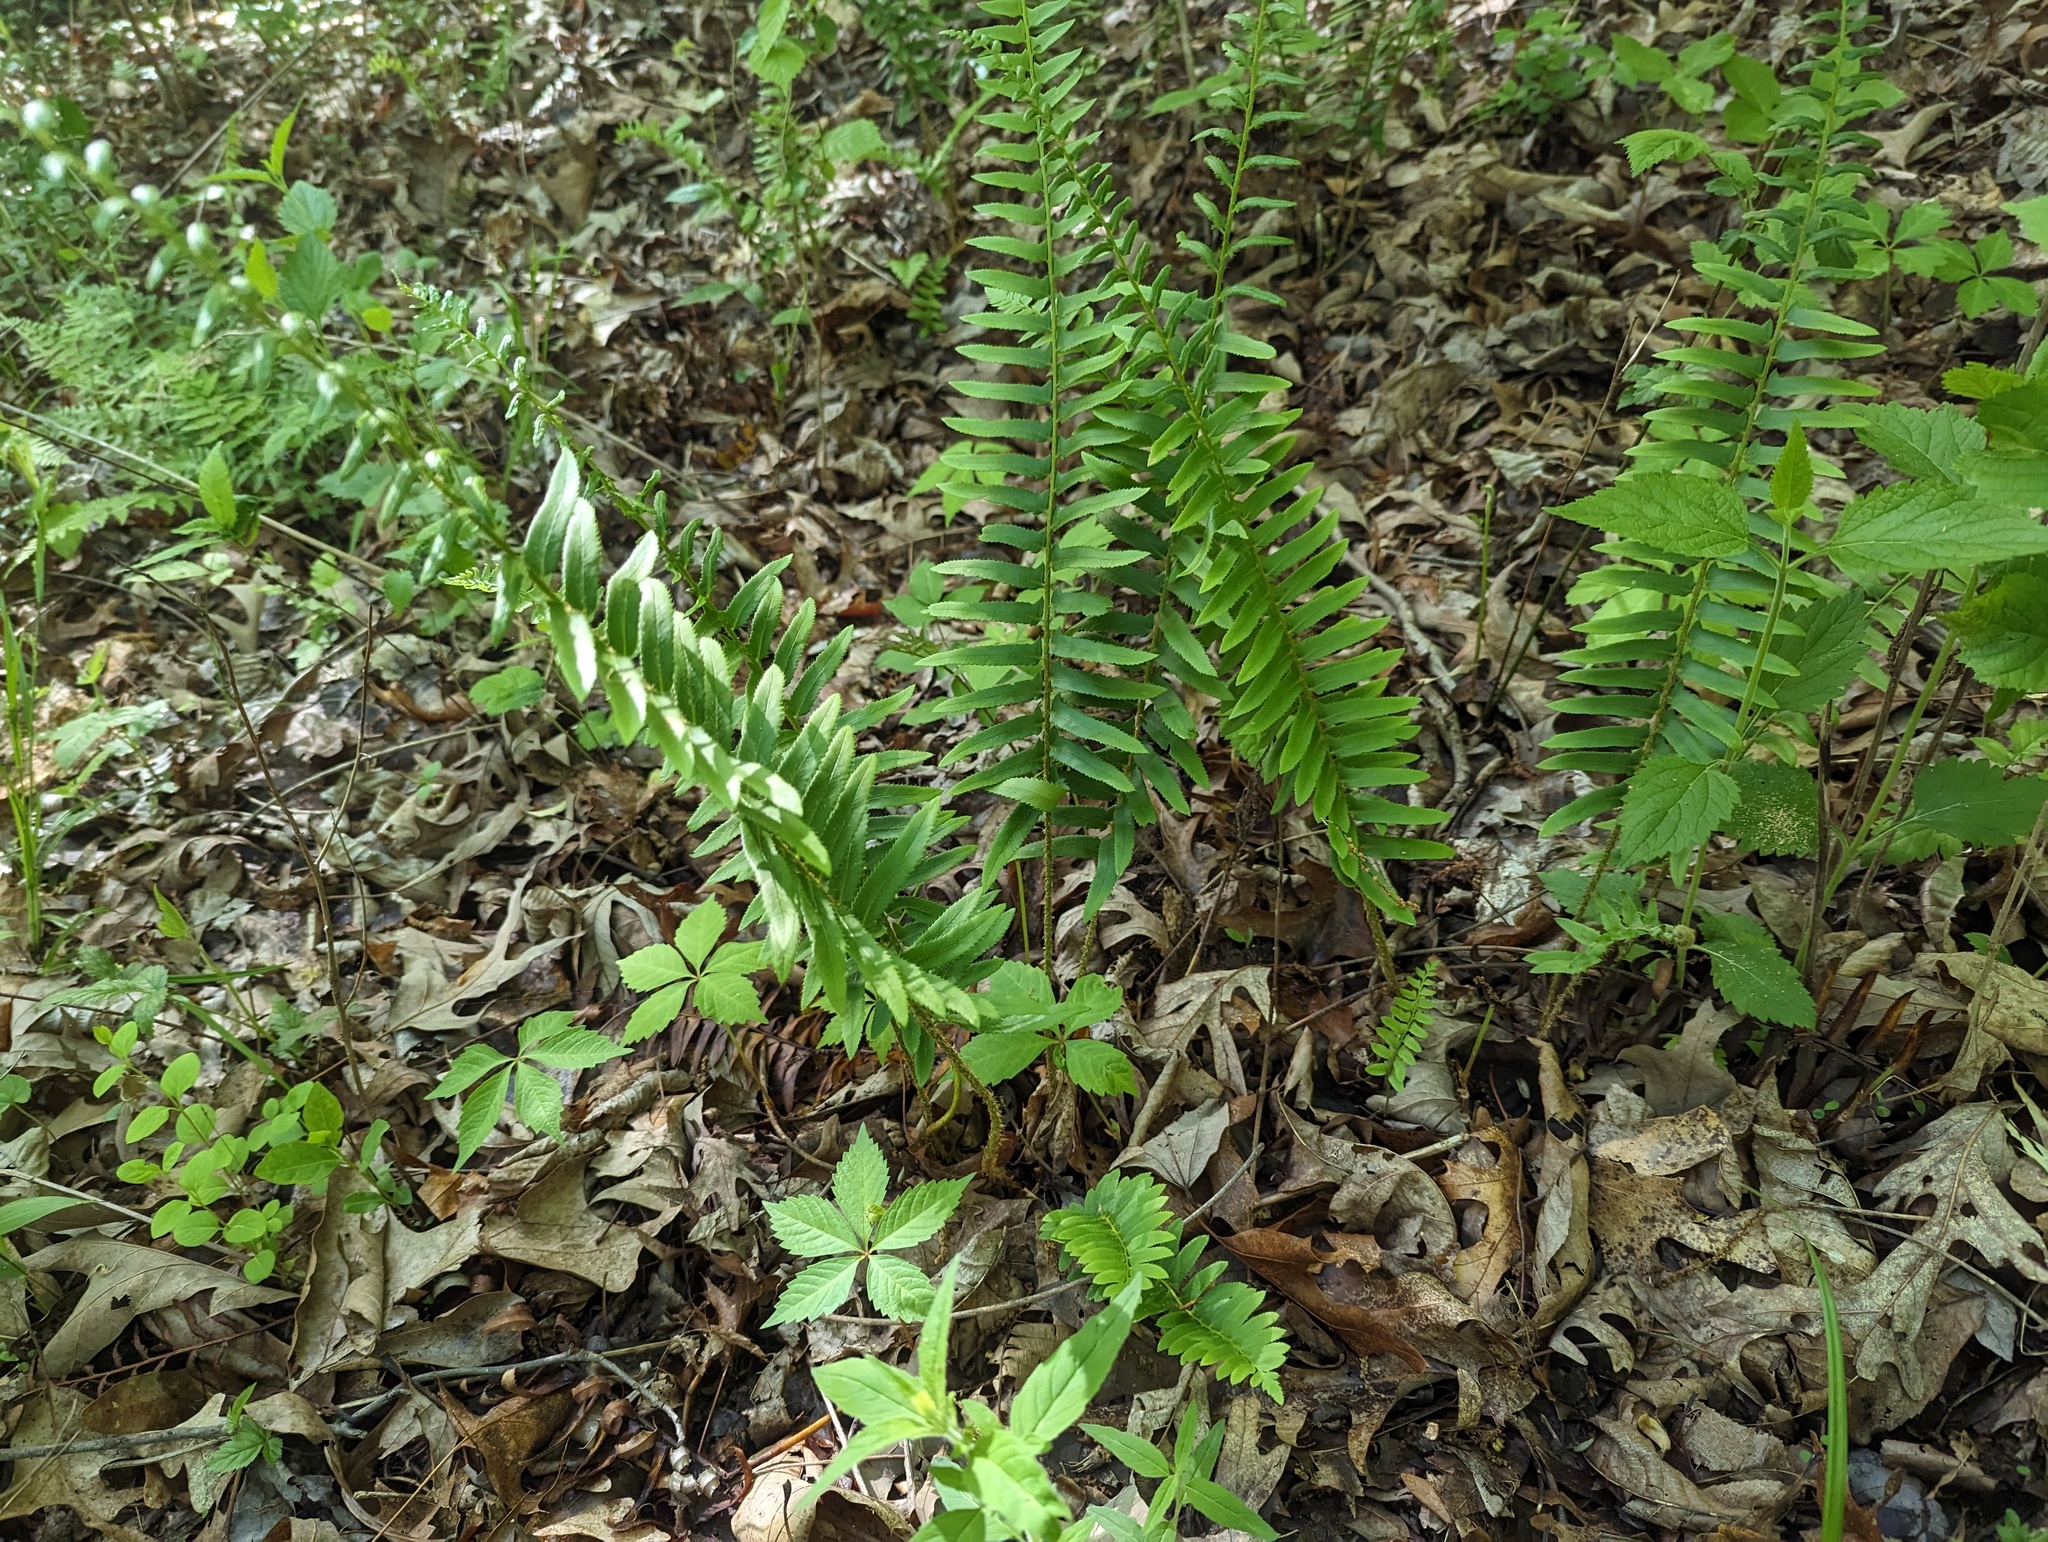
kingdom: Plantae
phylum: Tracheophyta
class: Polypodiopsida
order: Polypodiales
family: Dryopteridaceae
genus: Polystichum
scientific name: Polystichum acrostichoides
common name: Christmas fern
